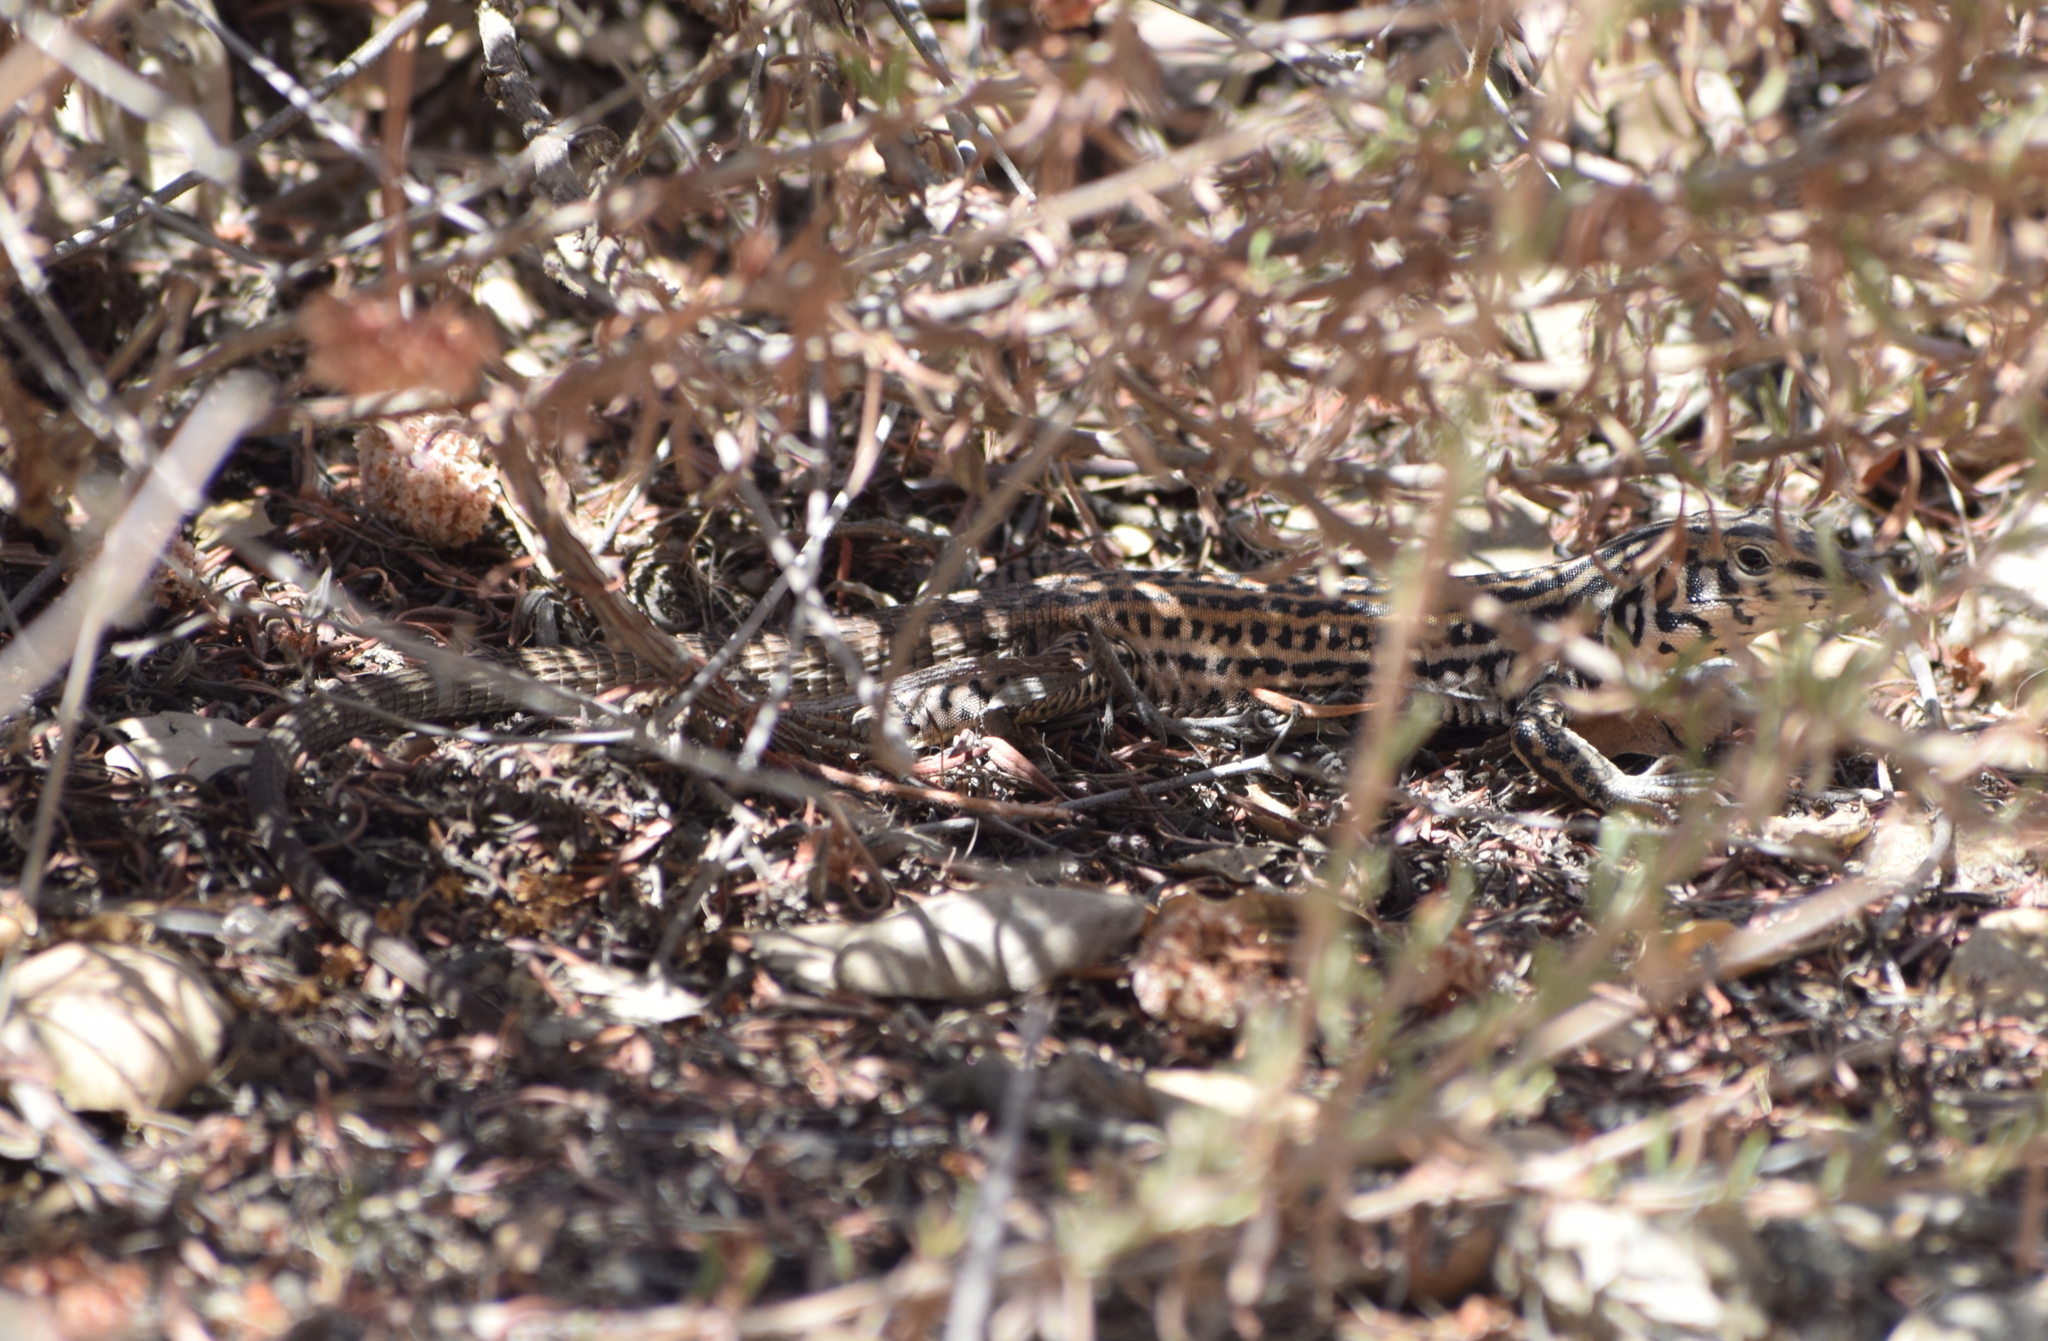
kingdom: Animalia
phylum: Chordata
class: Squamata
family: Teiidae
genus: Aspidoscelis
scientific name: Aspidoscelis tigris
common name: Tiger whiptail
